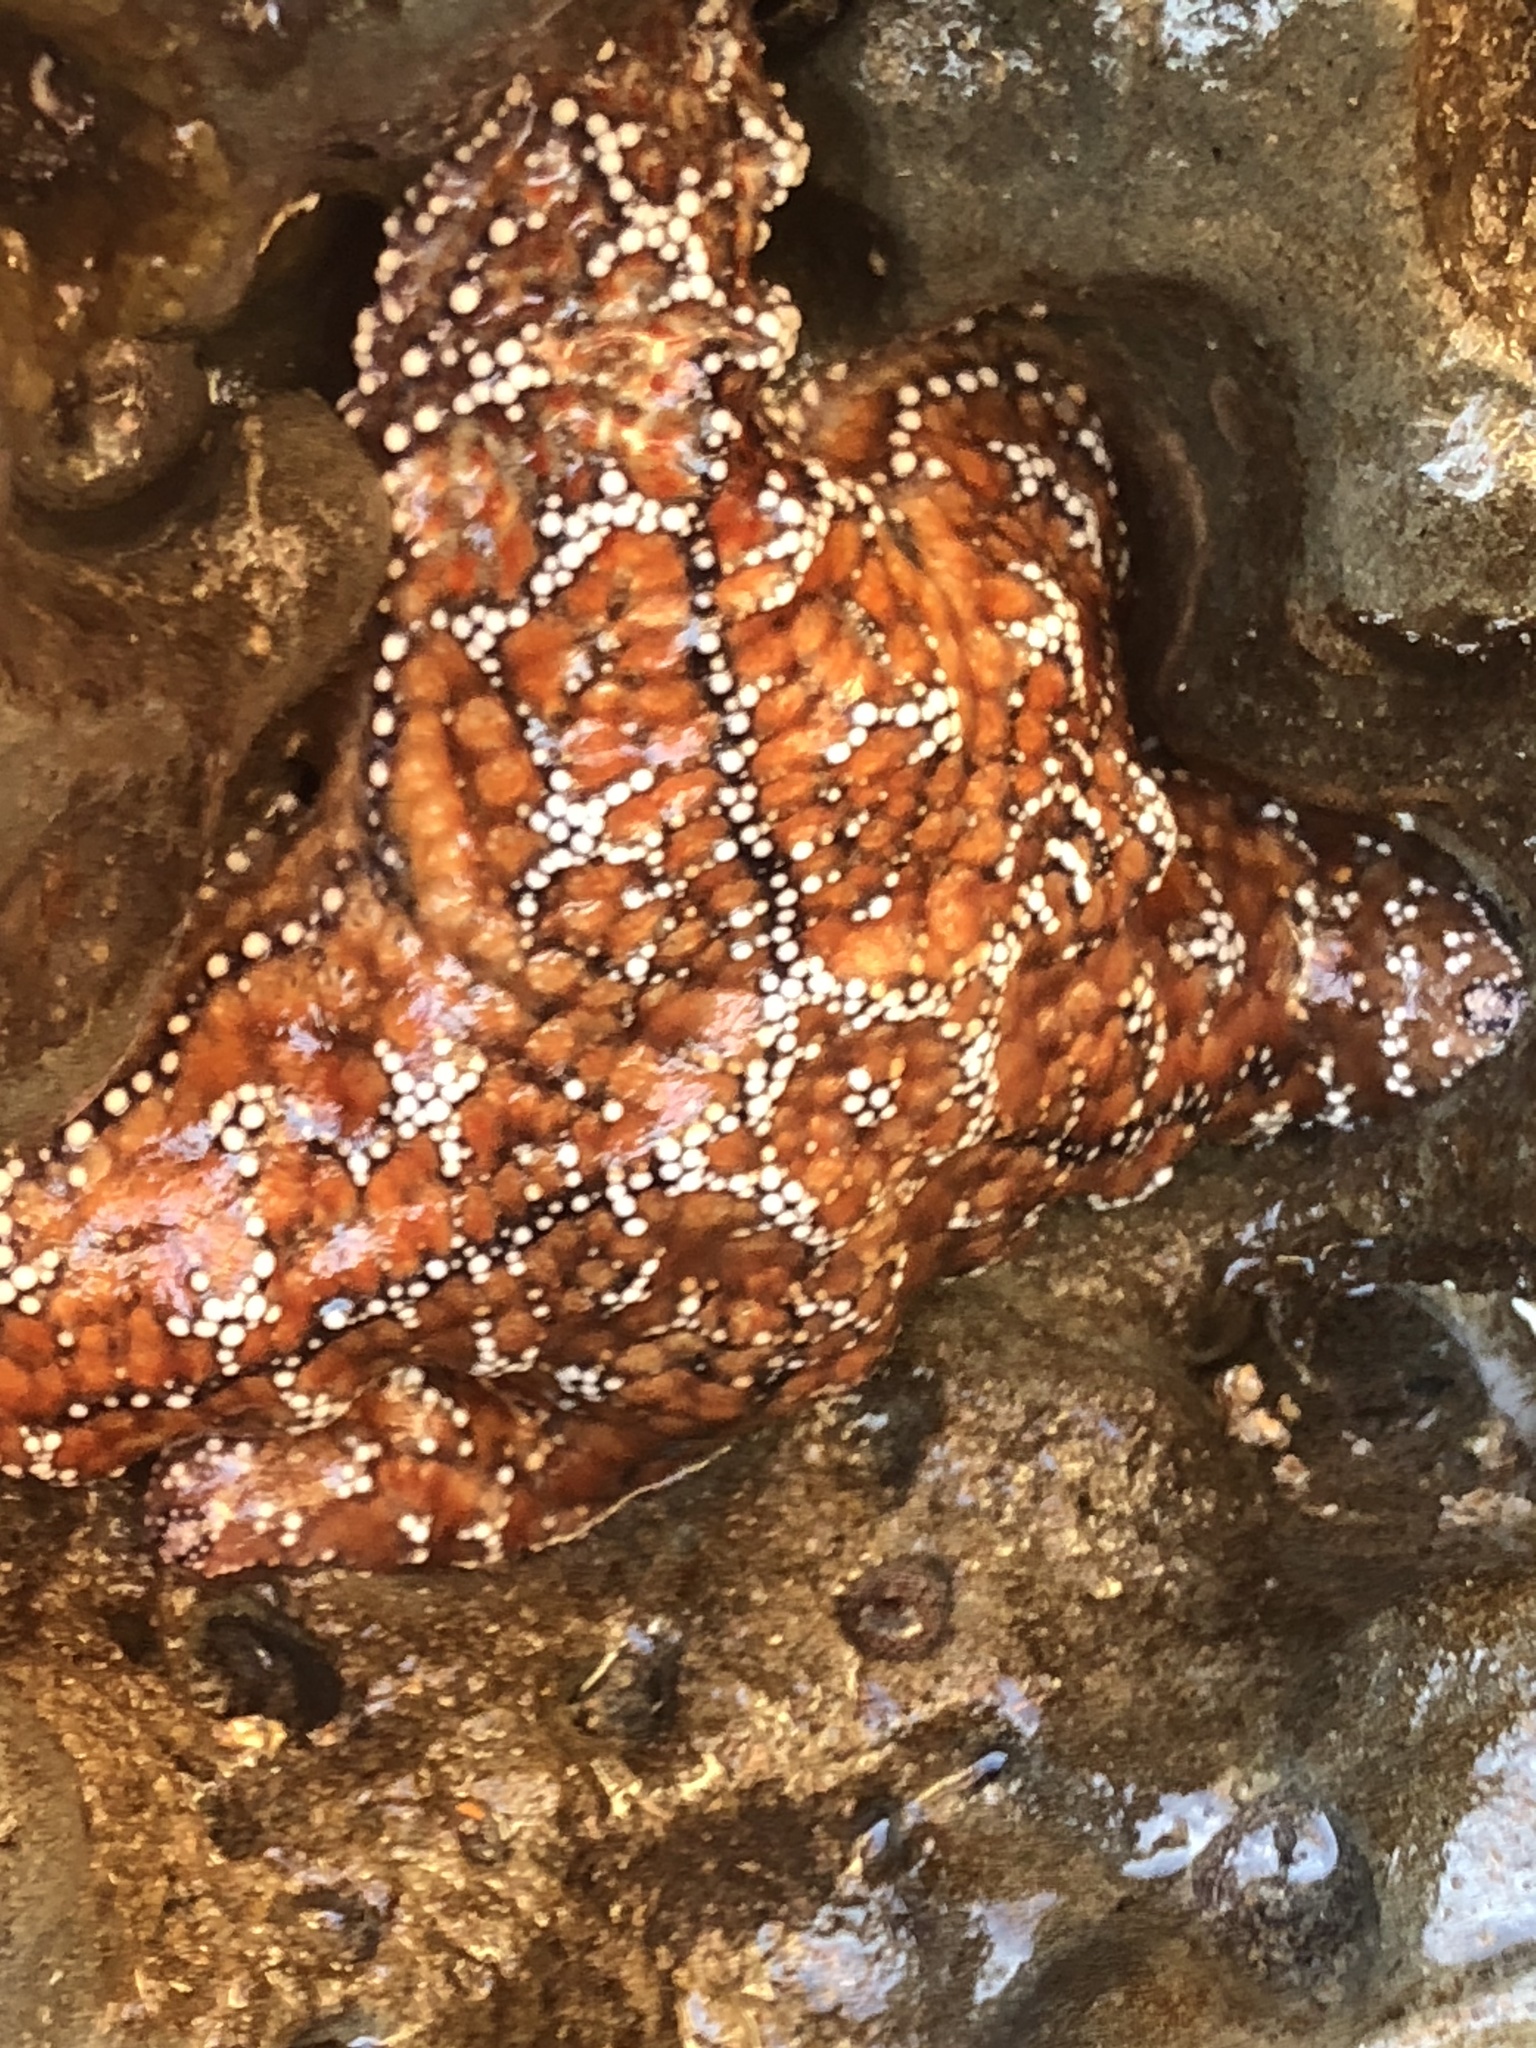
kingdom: Animalia
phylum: Echinodermata
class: Asteroidea
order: Forcipulatida
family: Asteriidae
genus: Pisaster
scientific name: Pisaster ochraceus
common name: Ochre stars
